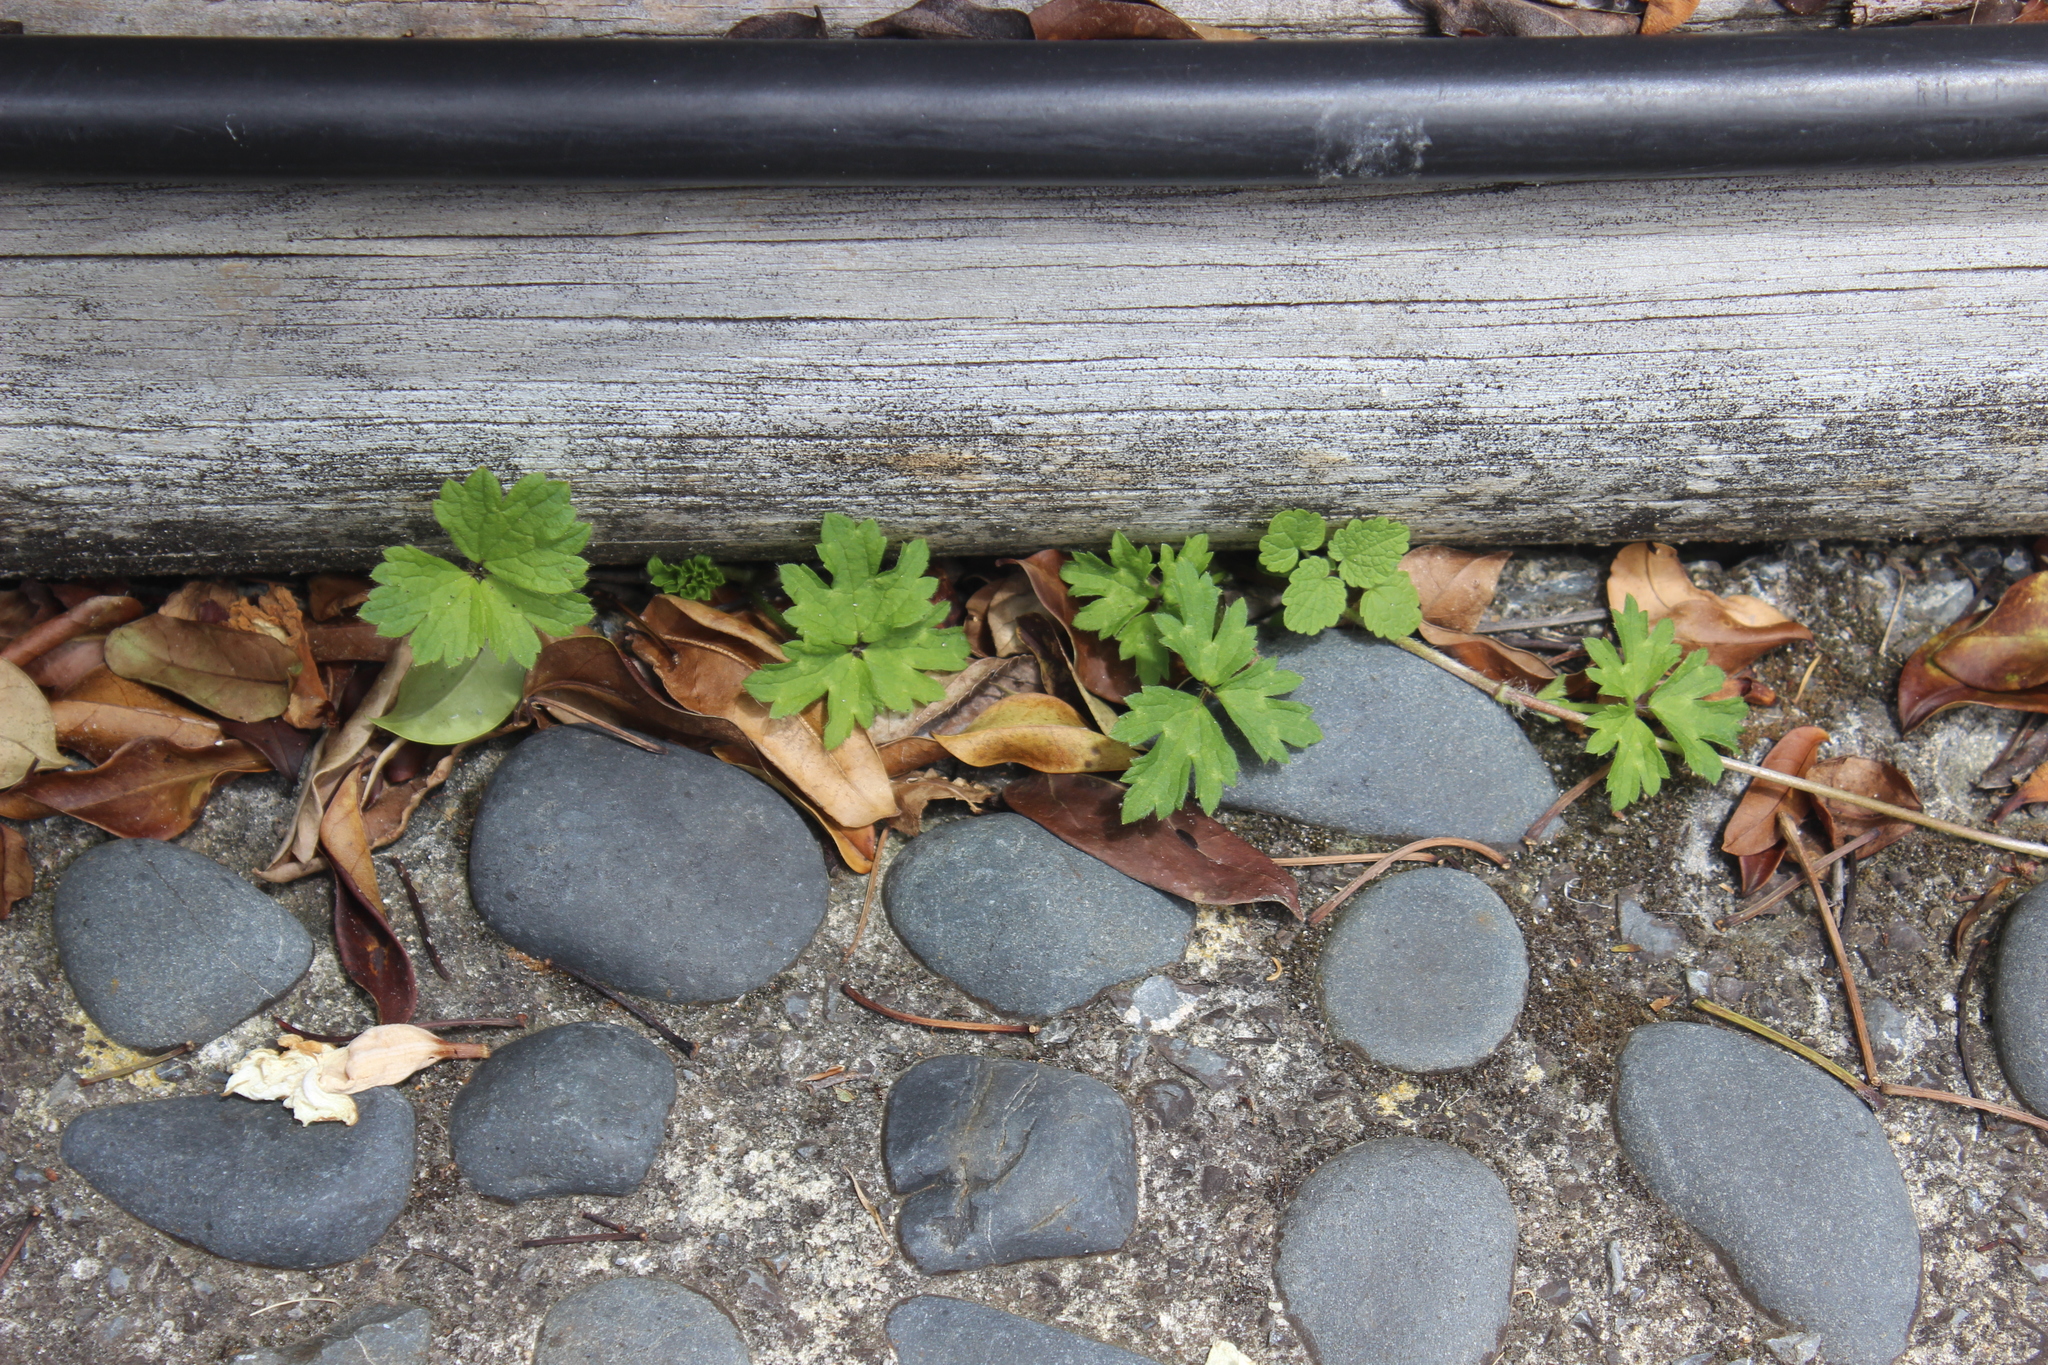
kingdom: Plantae
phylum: Tracheophyta
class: Magnoliopsida
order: Ranunculales
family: Ranunculaceae
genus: Ranunculus
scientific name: Ranunculus repens
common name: Creeping buttercup
